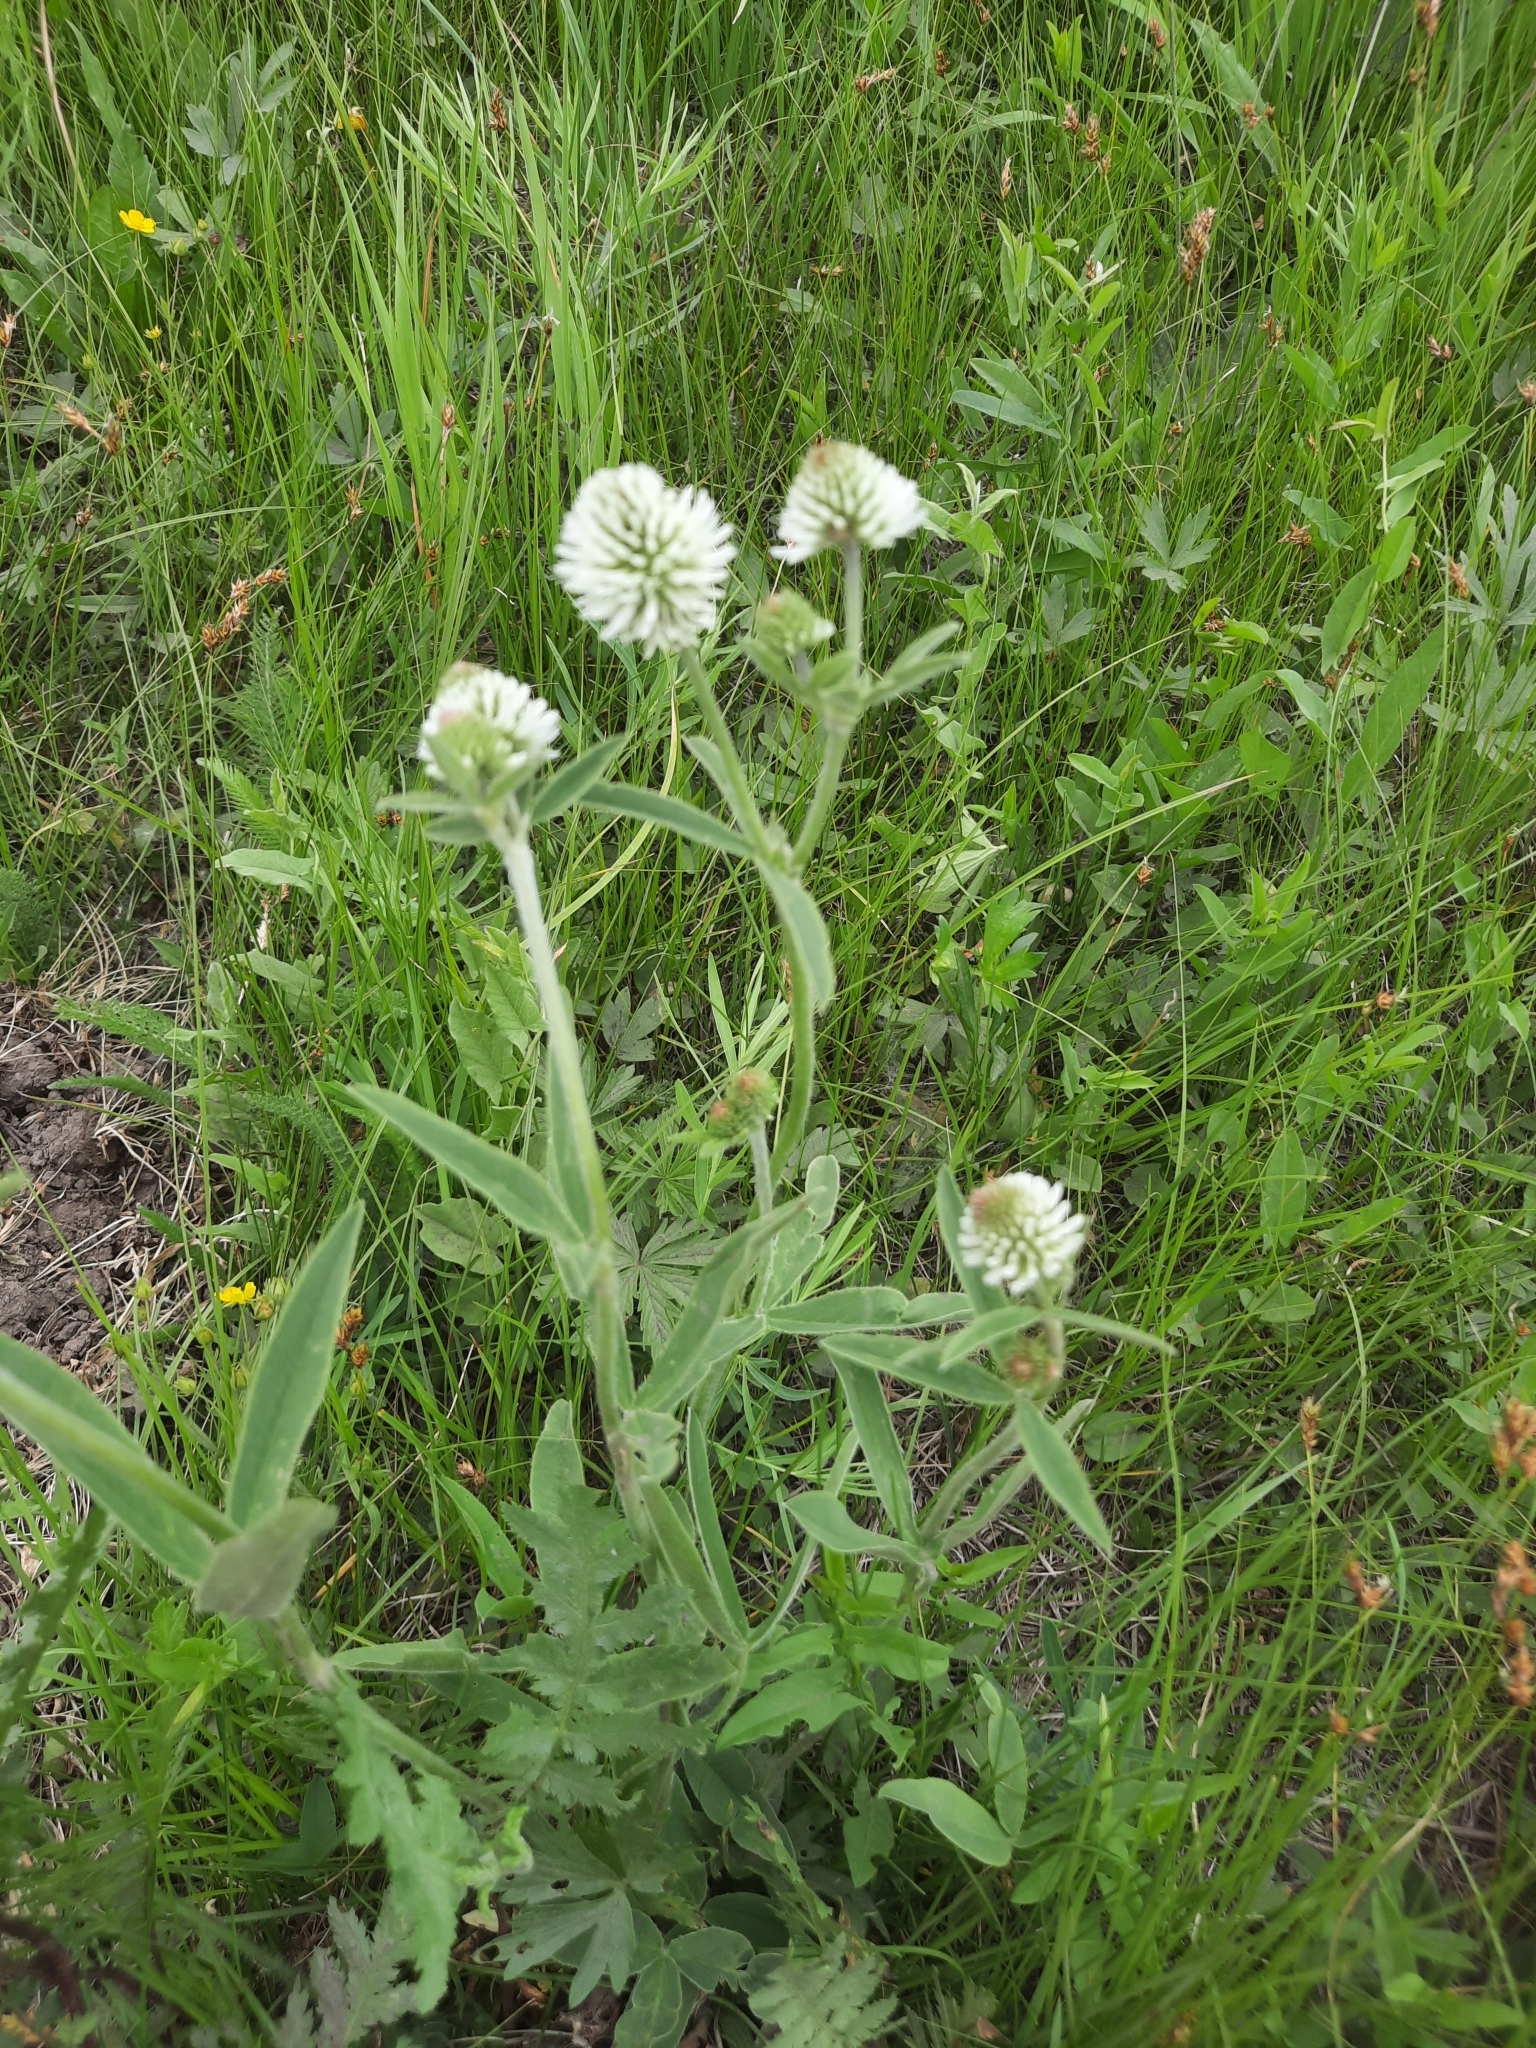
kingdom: Plantae
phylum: Tracheophyta
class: Magnoliopsida
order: Fabales
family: Fabaceae
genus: Trifolium
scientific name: Trifolium montanum
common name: Mountain clover
